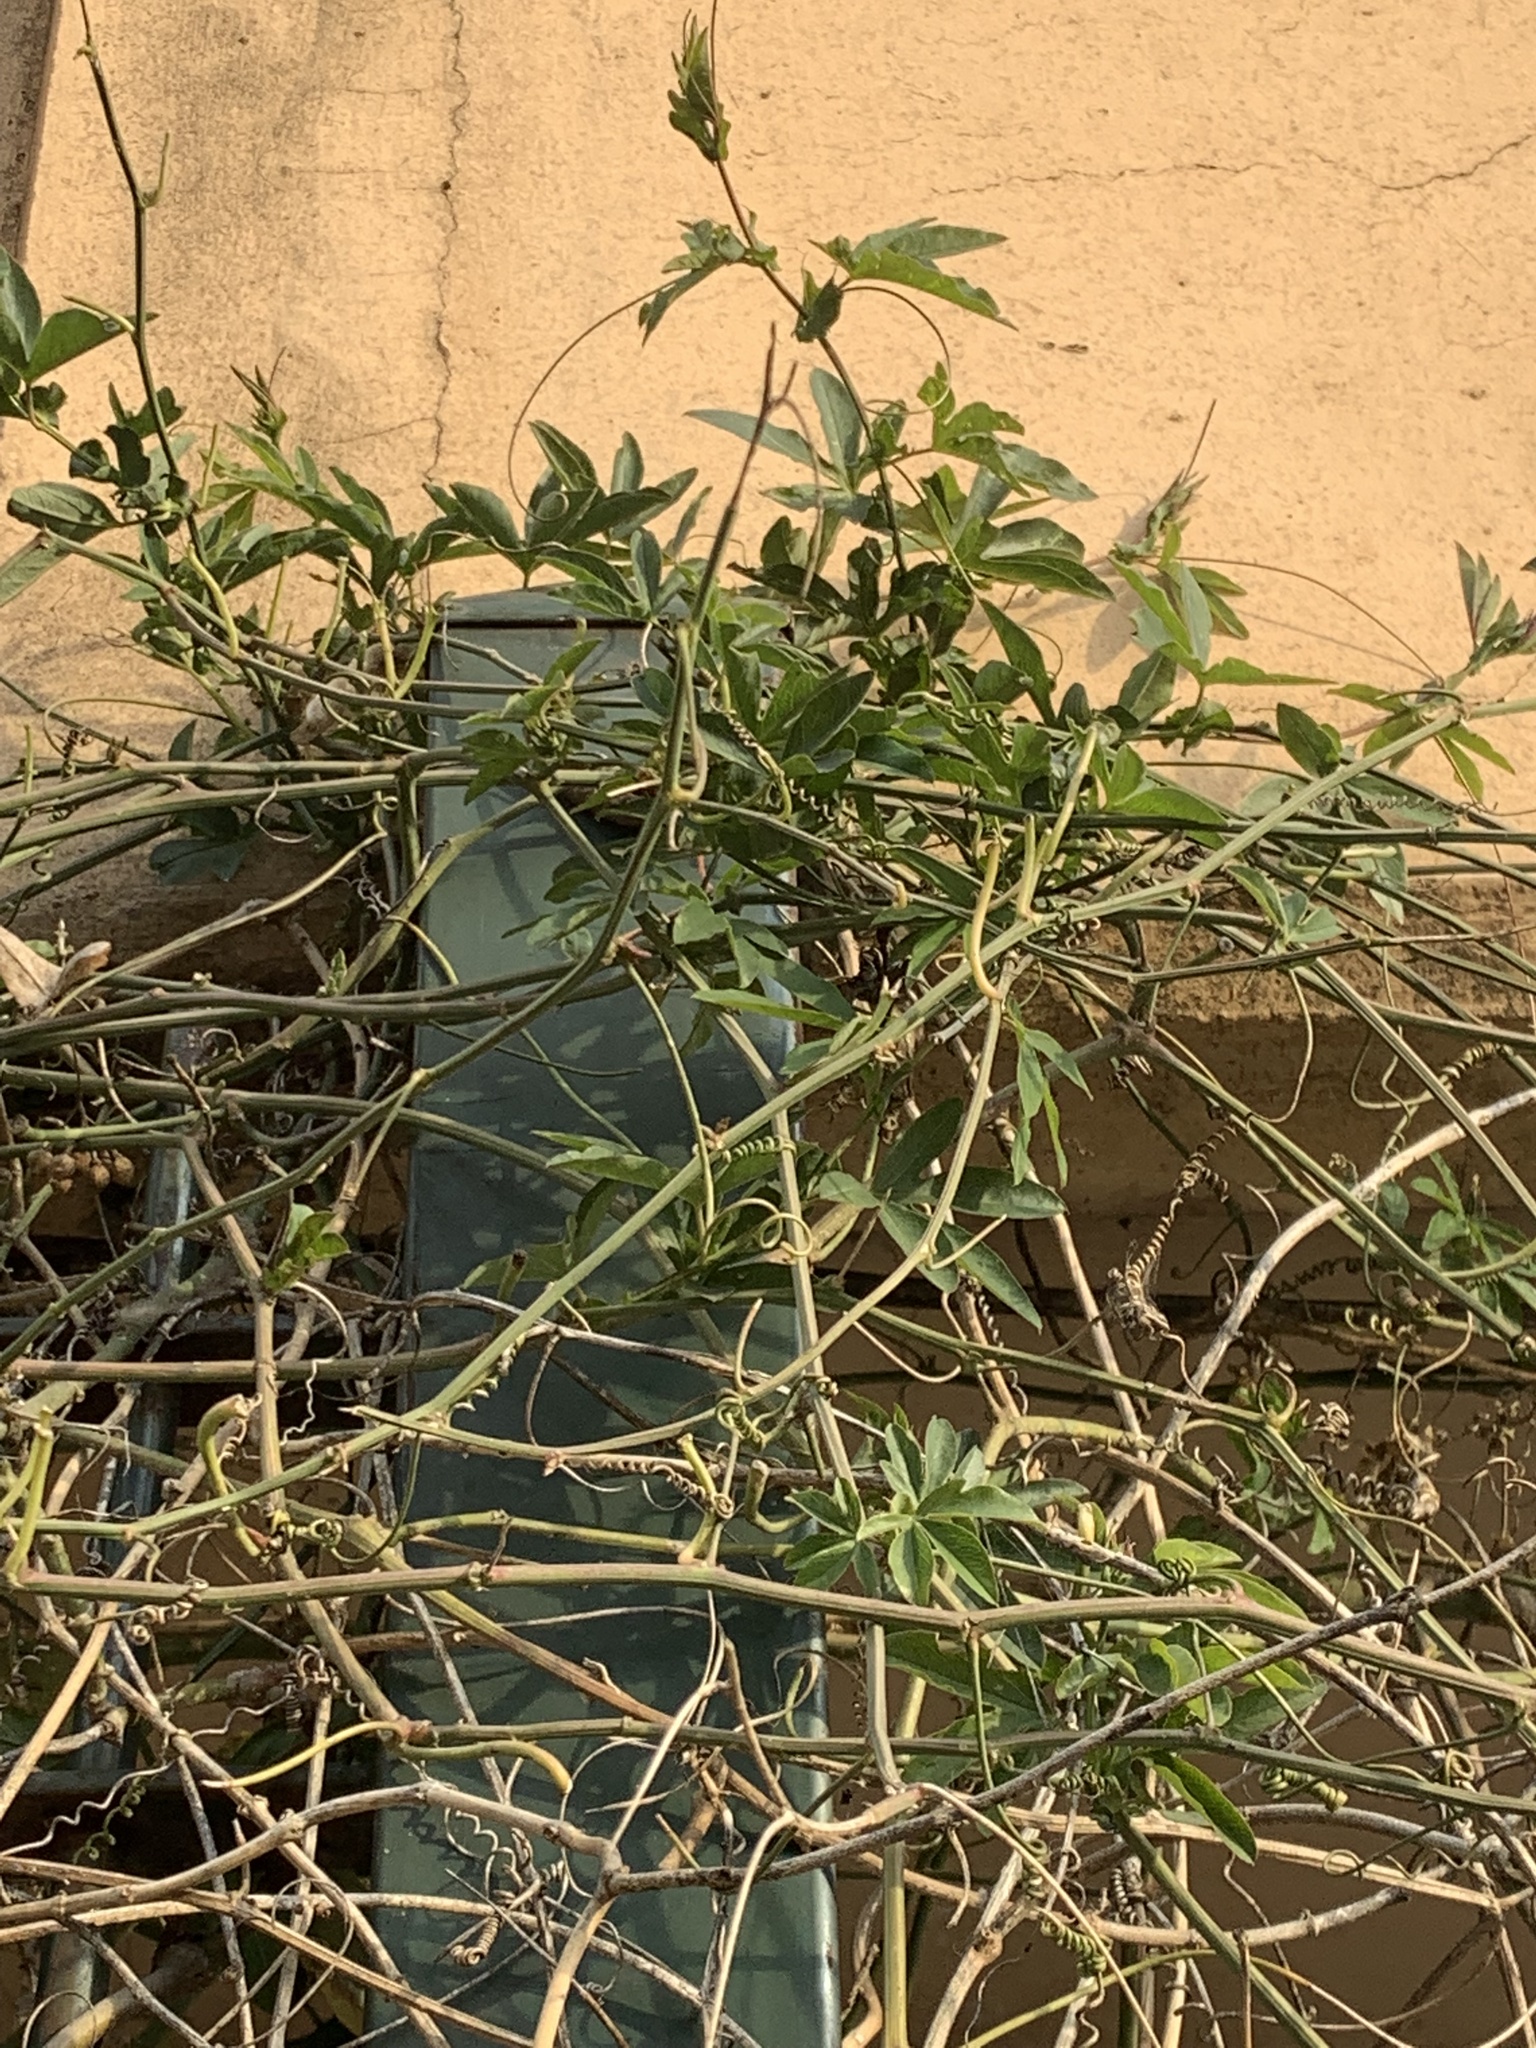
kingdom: Plantae
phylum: Tracheophyta
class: Magnoliopsida
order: Malpighiales
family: Passifloraceae
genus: Passiflora
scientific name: Passiflora caerulea
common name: Blue passionflower
